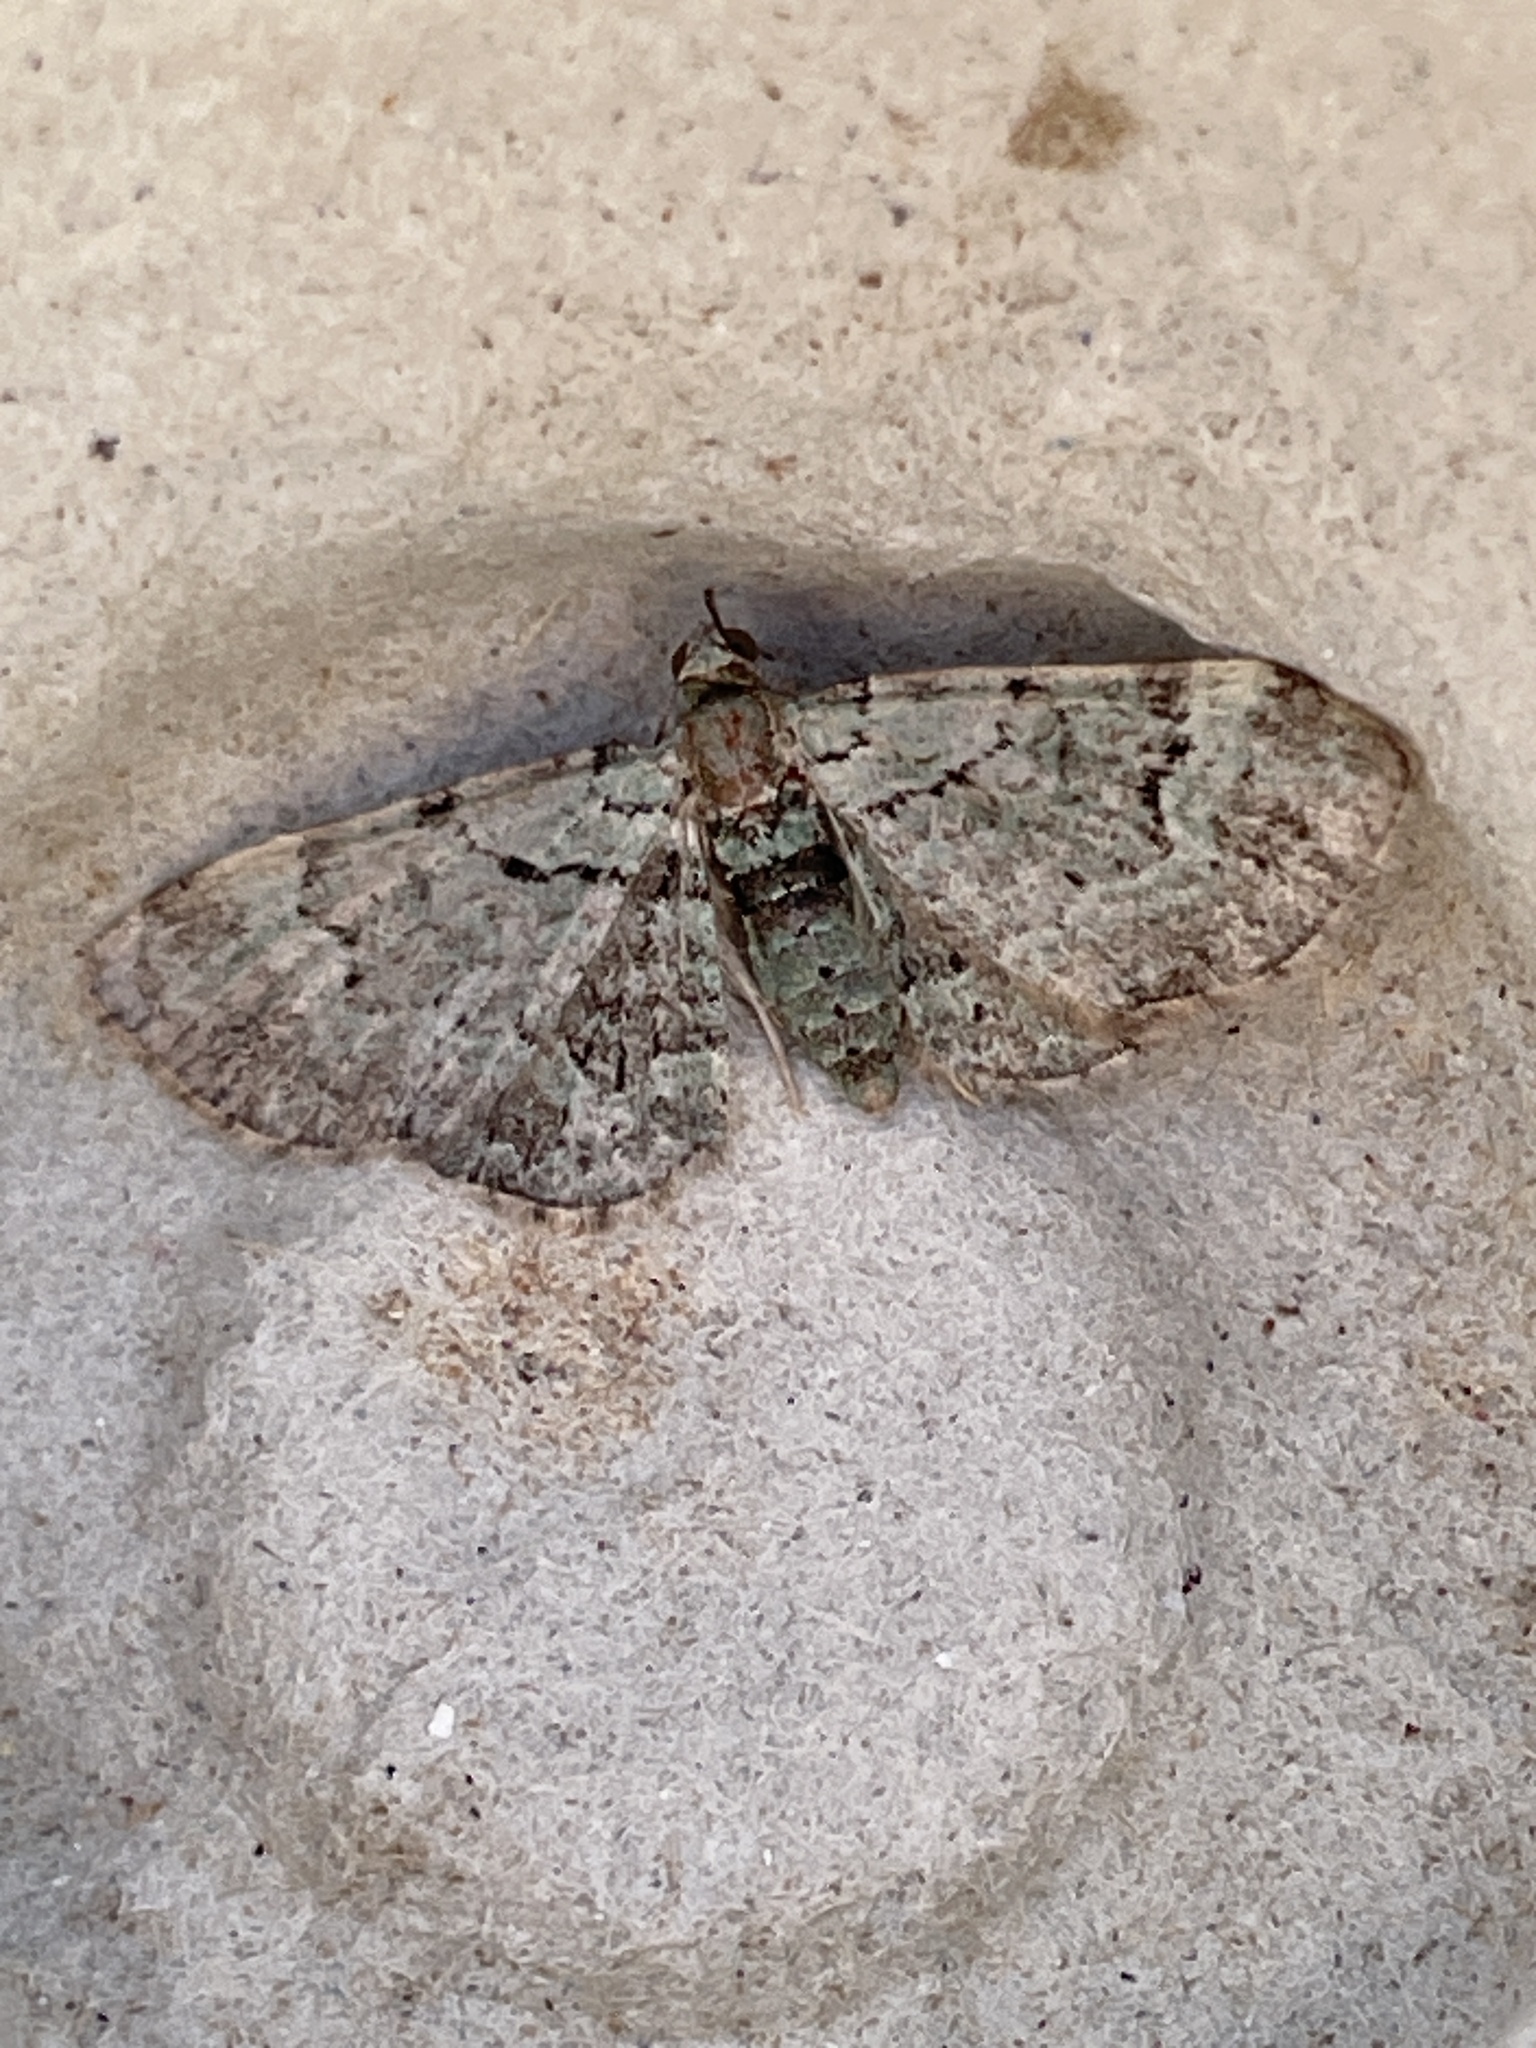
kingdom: Animalia
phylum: Arthropoda
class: Insecta
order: Lepidoptera
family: Geometridae
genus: Pasiphila
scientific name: Pasiphila rectangulata
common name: Green pug
